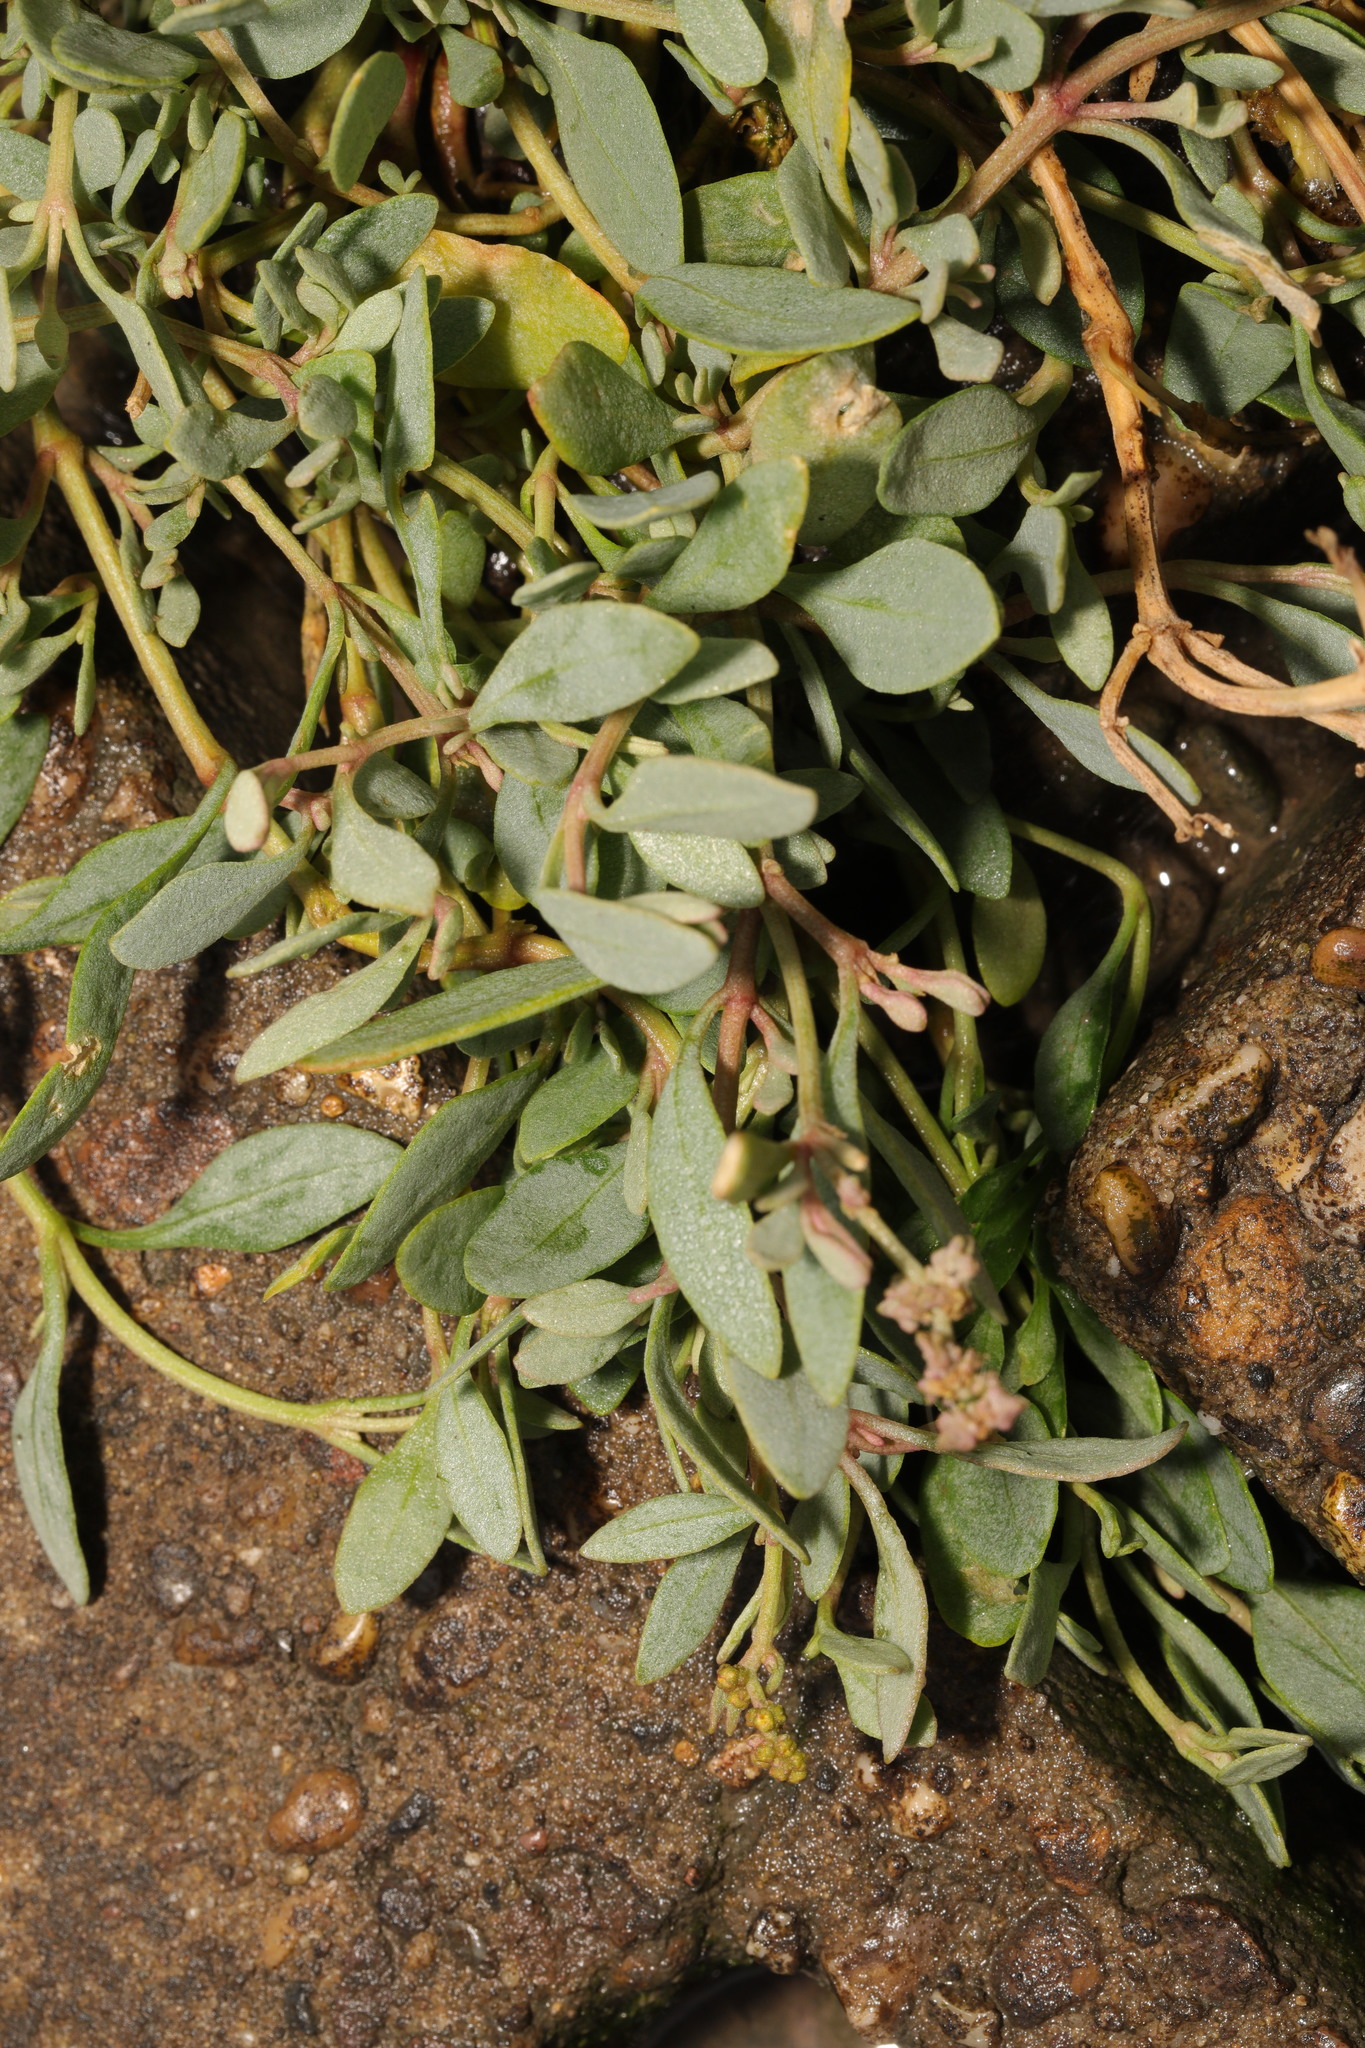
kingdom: Plantae
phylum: Tracheophyta
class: Magnoliopsida
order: Caryophyllales
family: Amaranthaceae
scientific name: Amaranthaceae
